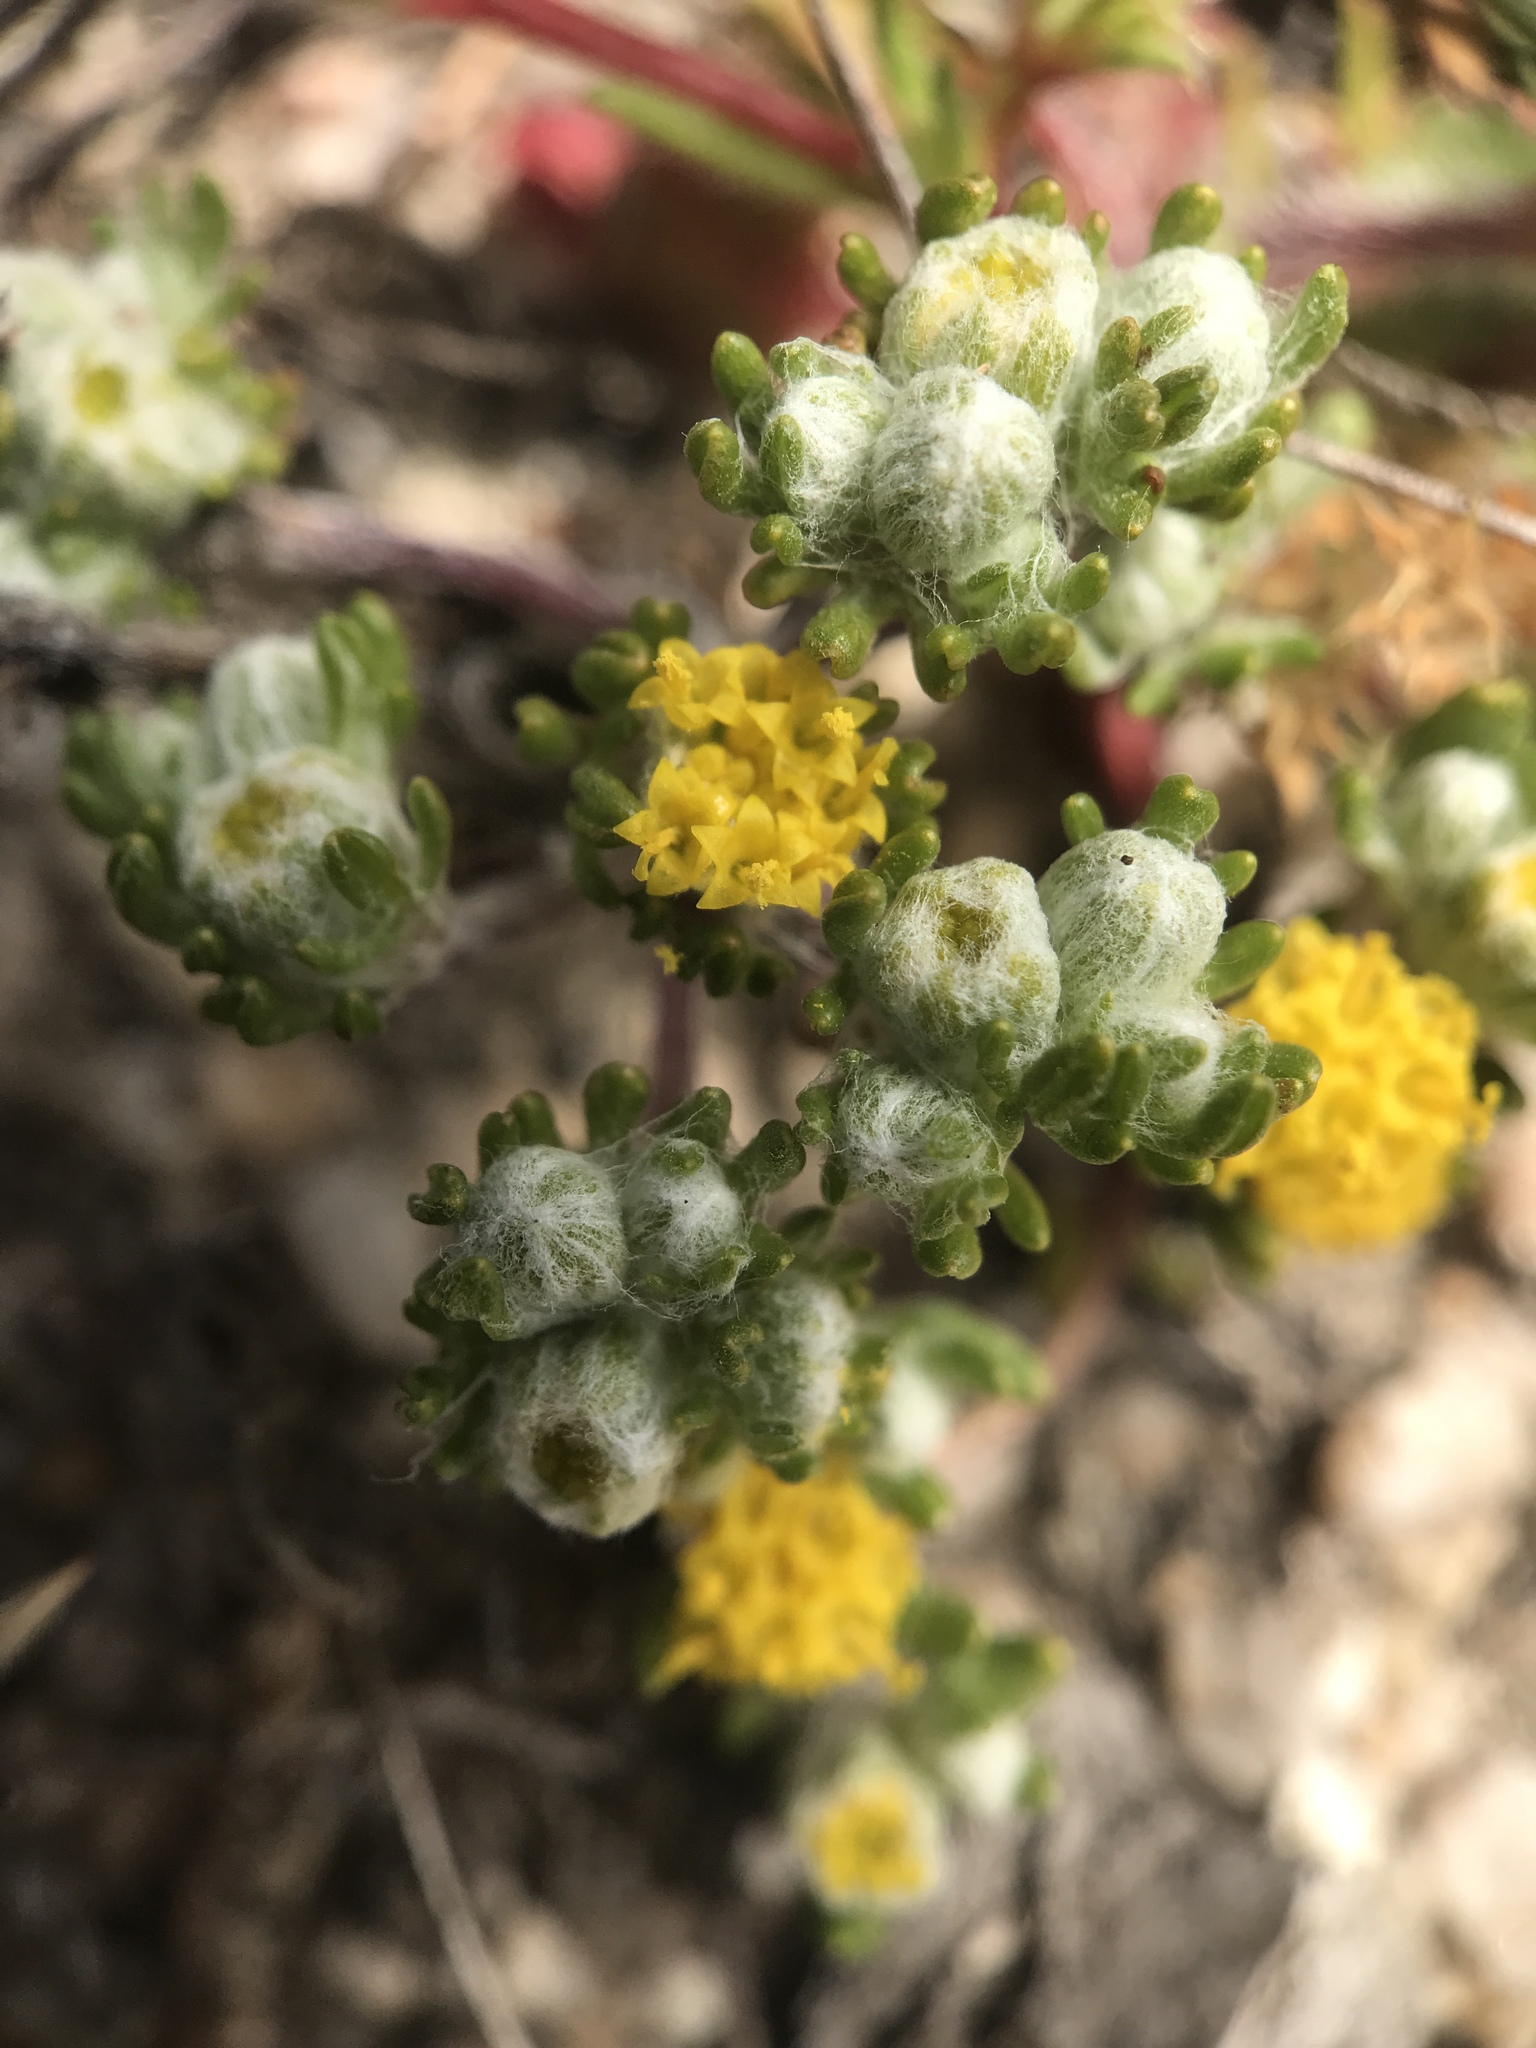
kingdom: Plantae
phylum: Tracheophyta
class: Magnoliopsida
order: Asterales
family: Asteraceae
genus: Eriophyllum
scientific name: Eriophyllum pringlei
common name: Pringle's woolly-sunflower
